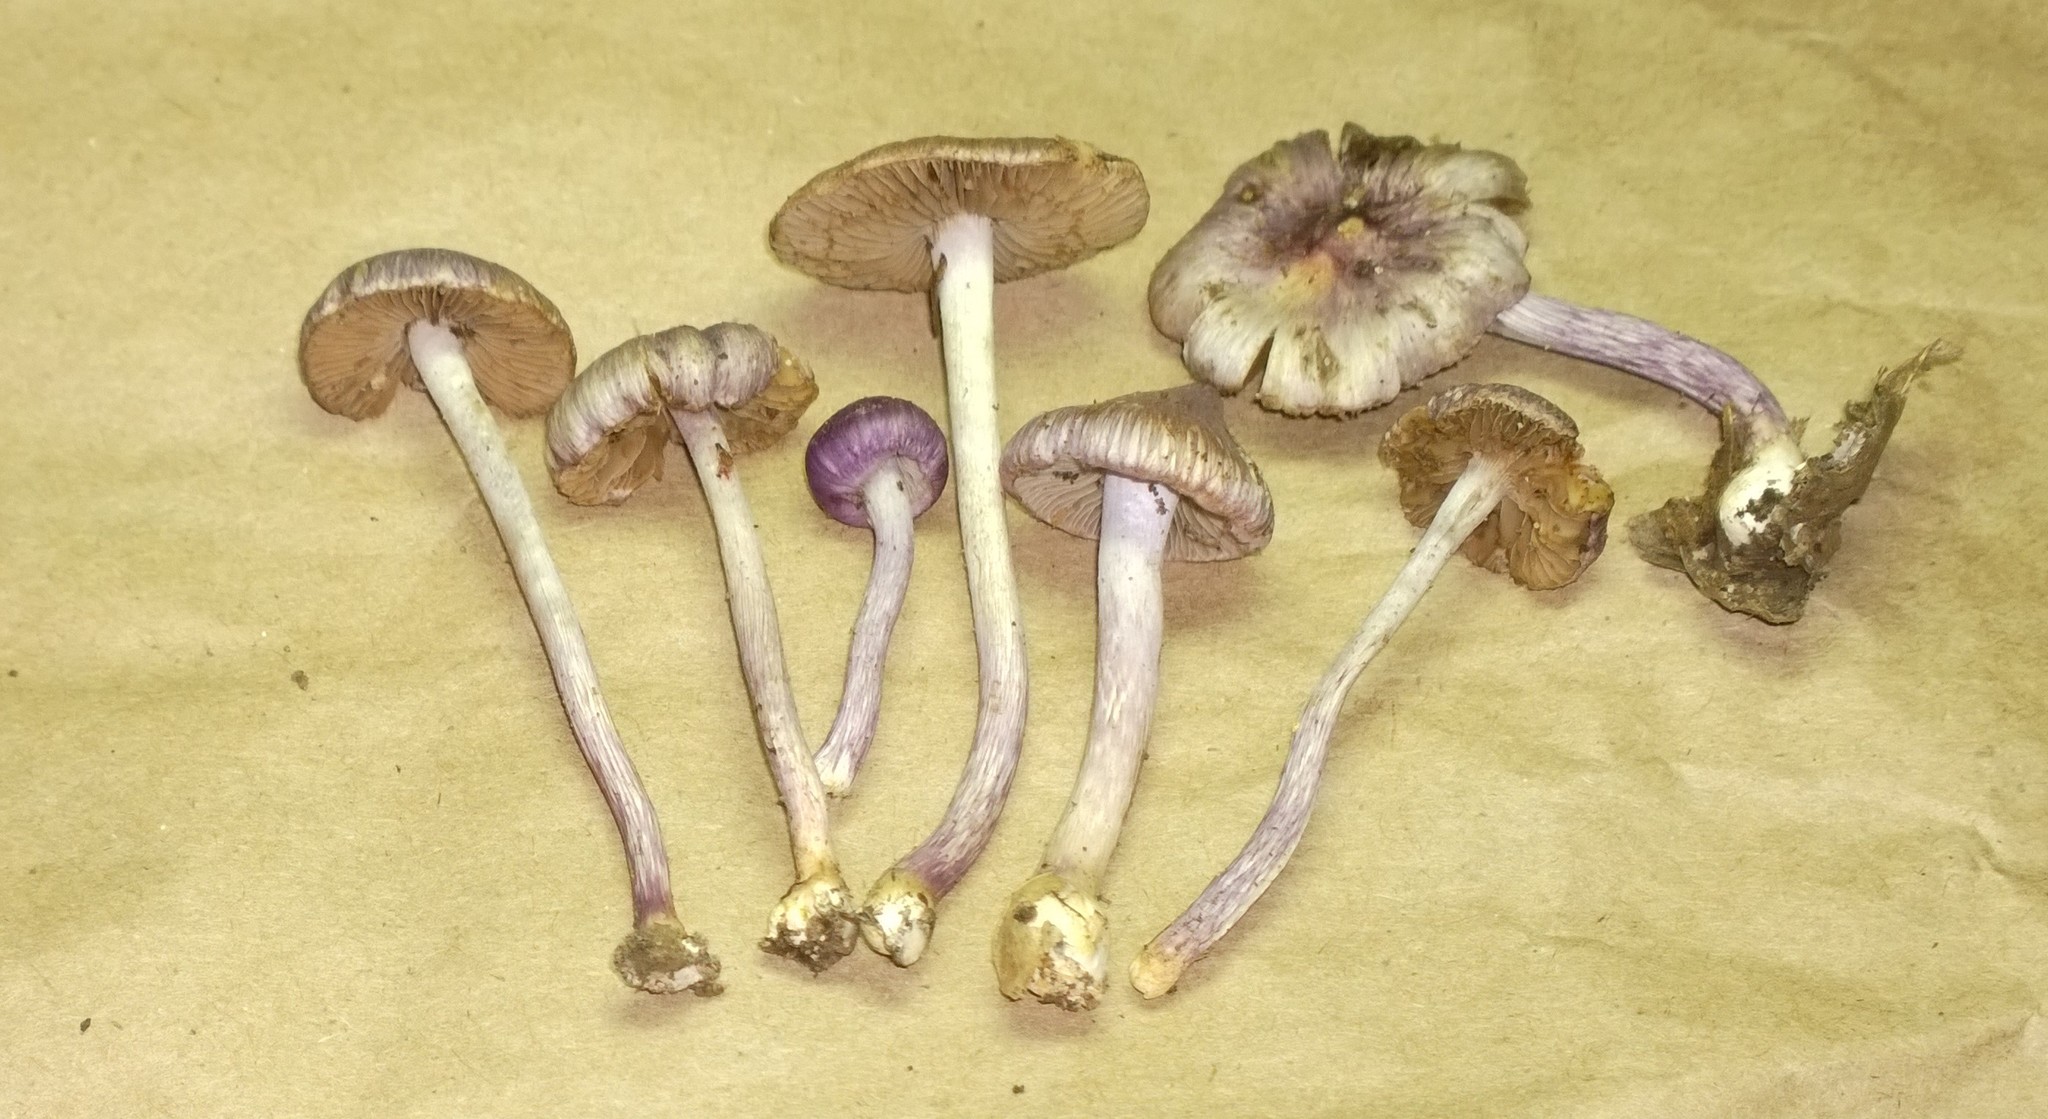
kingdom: Fungi
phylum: Basidiomycota
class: Agaricomycetes
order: Agaricales
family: Inocybaceae
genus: Inocybe
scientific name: Inocybe geophylla
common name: White fibrecap
